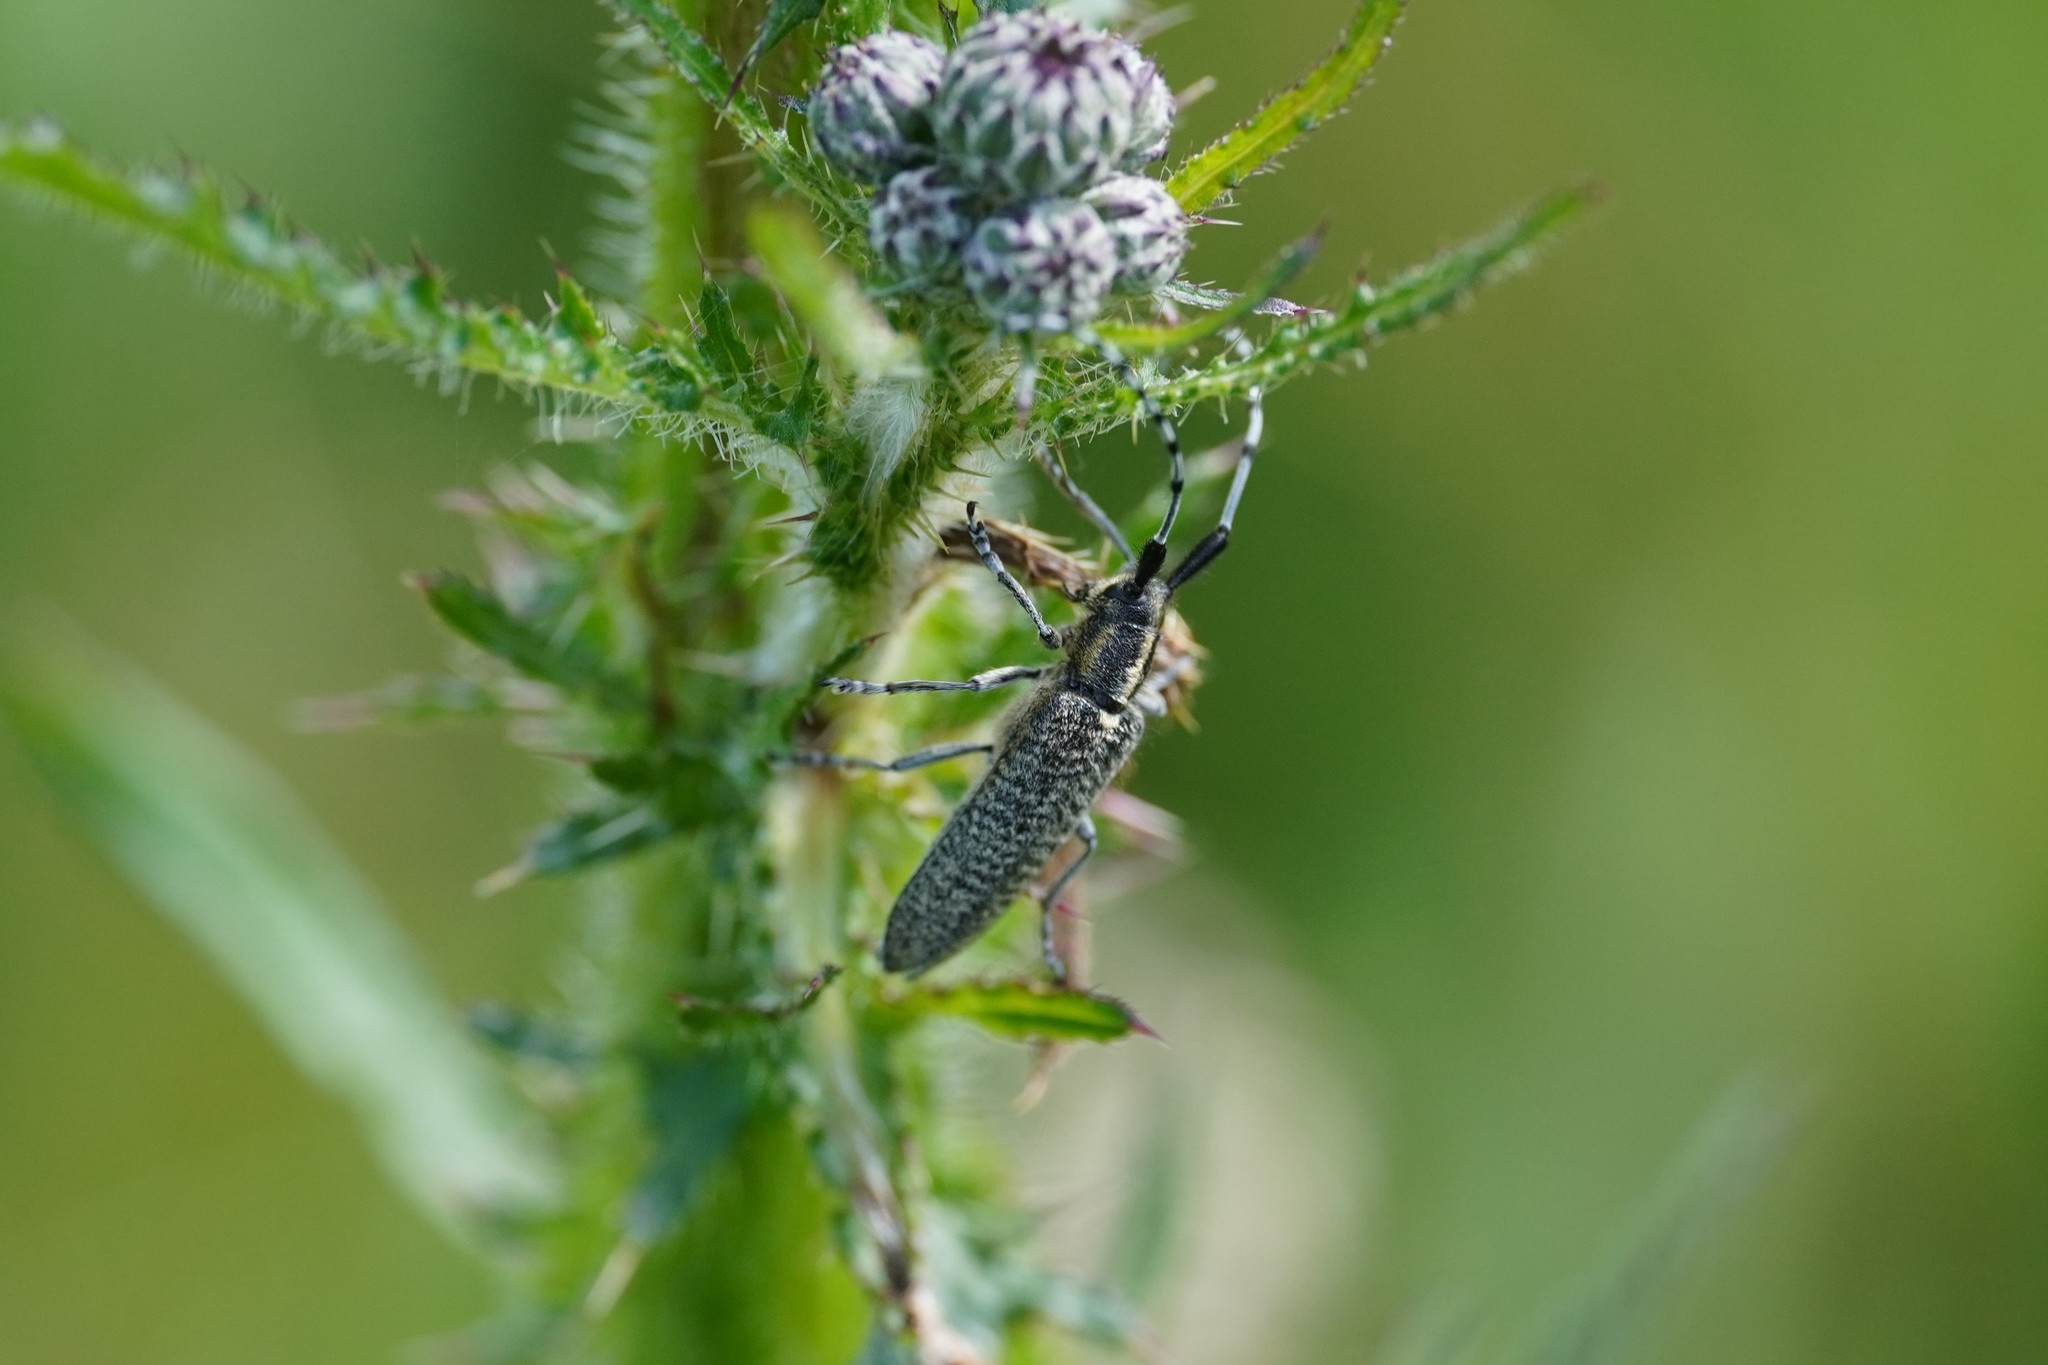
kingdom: Animalia
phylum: Arthropoda
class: Insecta
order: Coleoptera
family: Cerambycidae
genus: Agapanthia
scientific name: Agapanthia villosoviridescens
